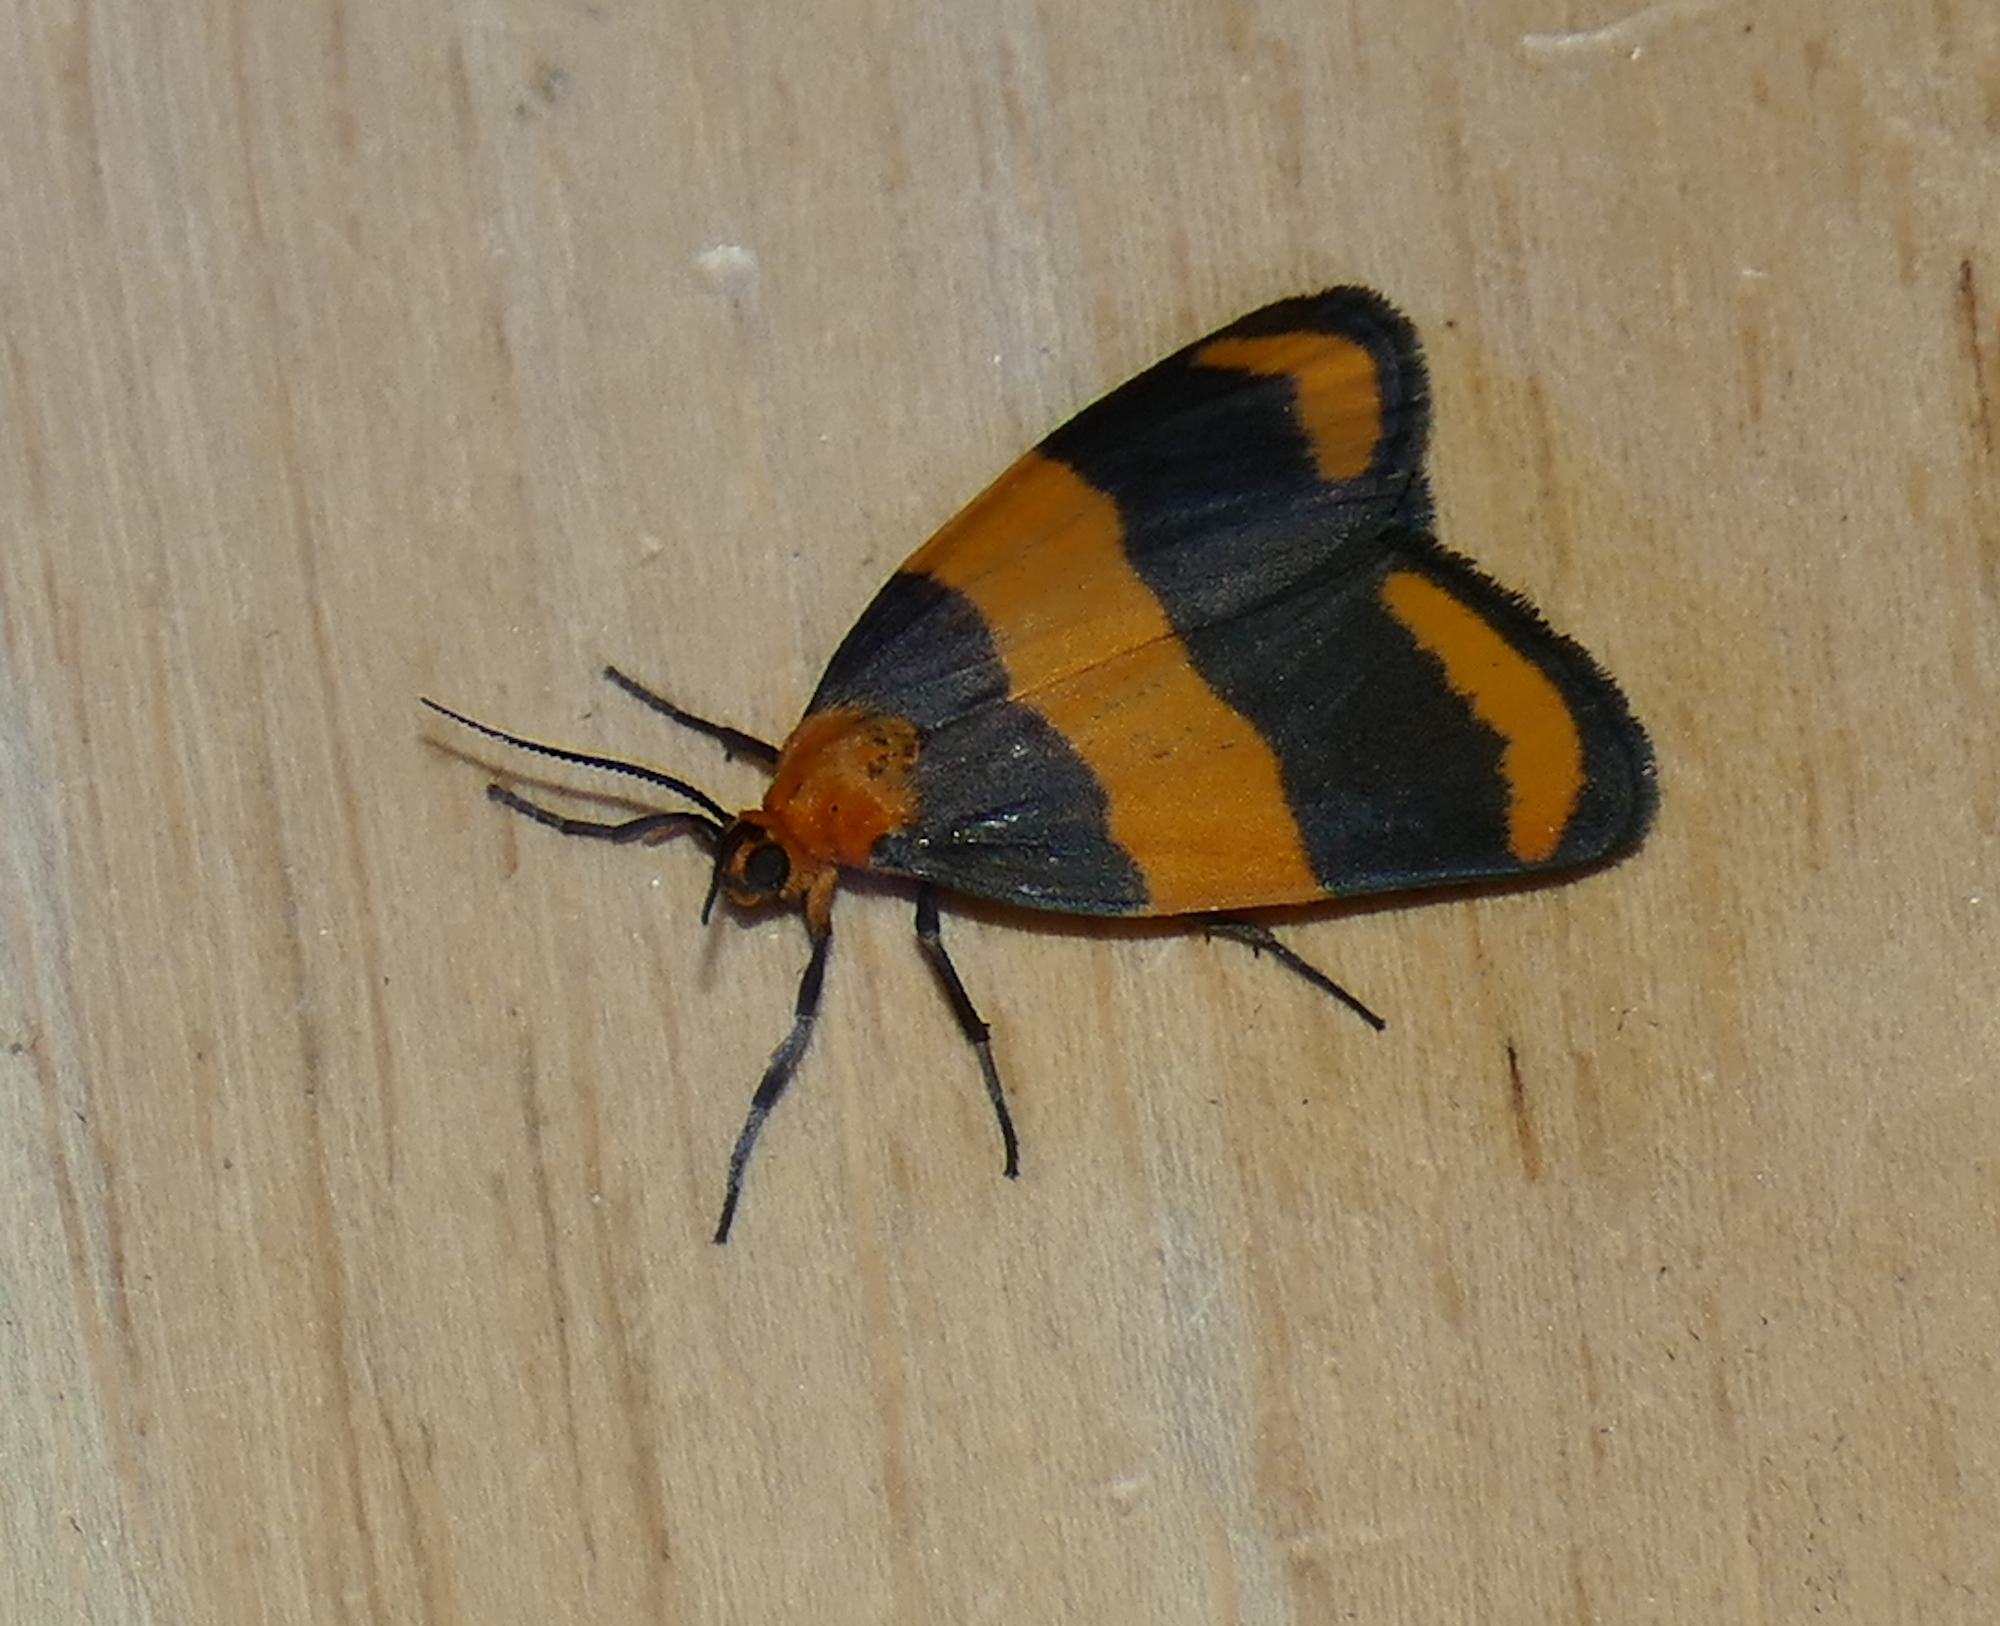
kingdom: Animalia
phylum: Arthropoda
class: Insecta
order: Lepidoptera
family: Erebidae
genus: Eudesmia
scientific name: Eudesmia arida
